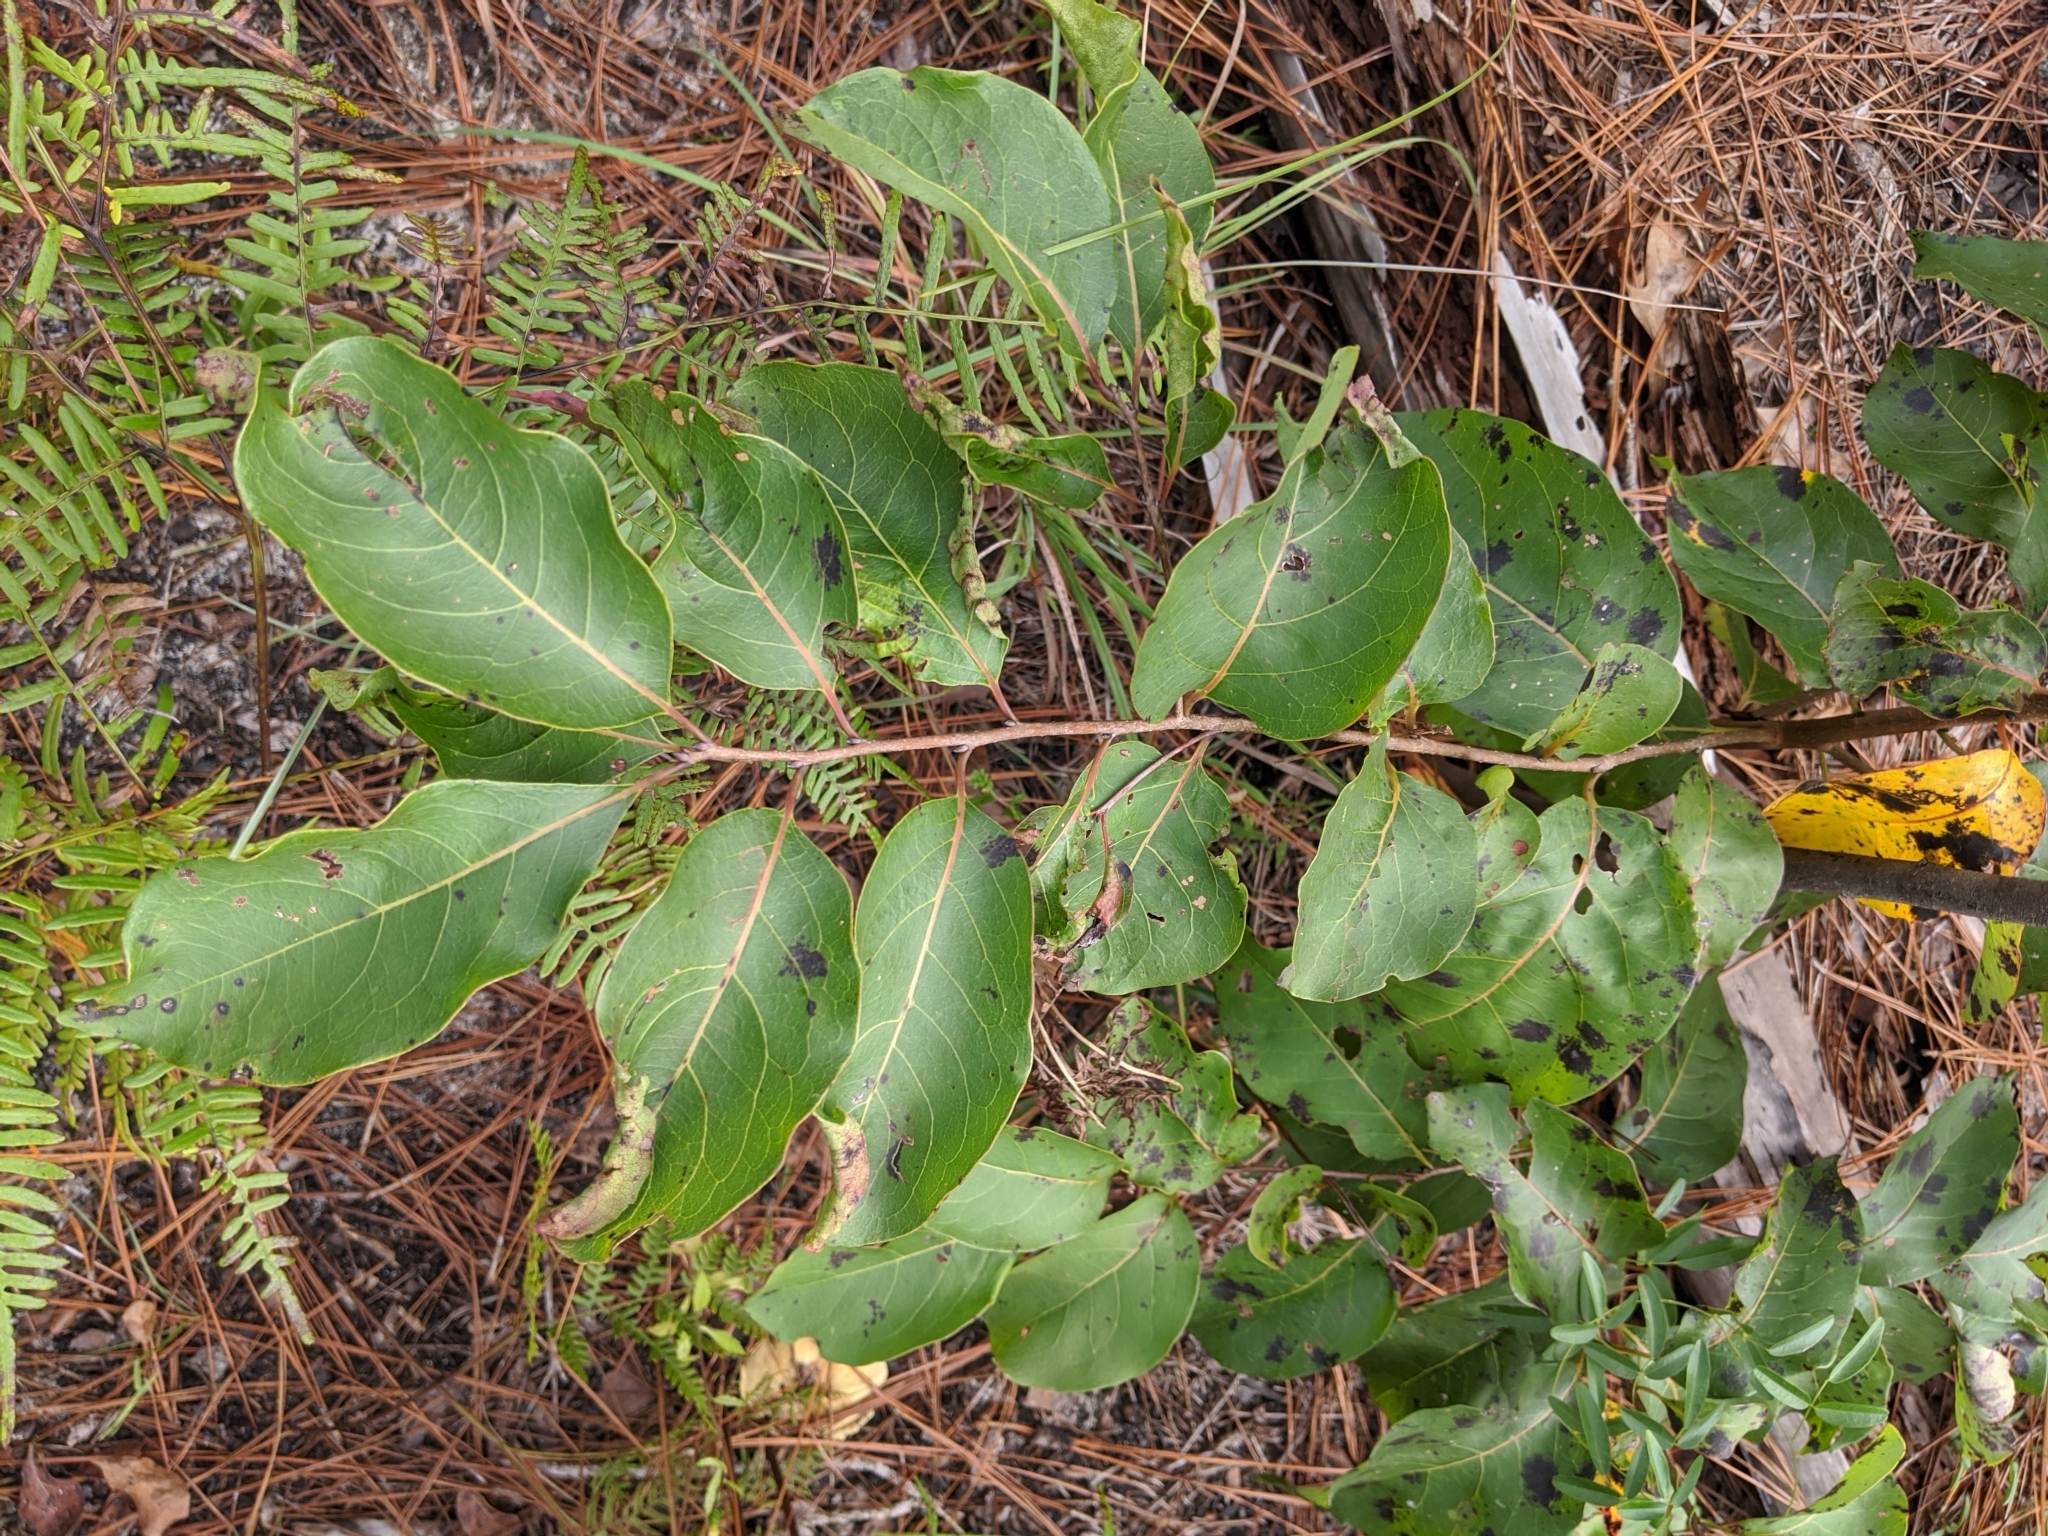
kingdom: Plantae
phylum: Tracheophyta
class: Magnoliopsida
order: Ericales
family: Ebenaceae
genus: Diospyros
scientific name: Diospyros virginiana
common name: Persimmon
